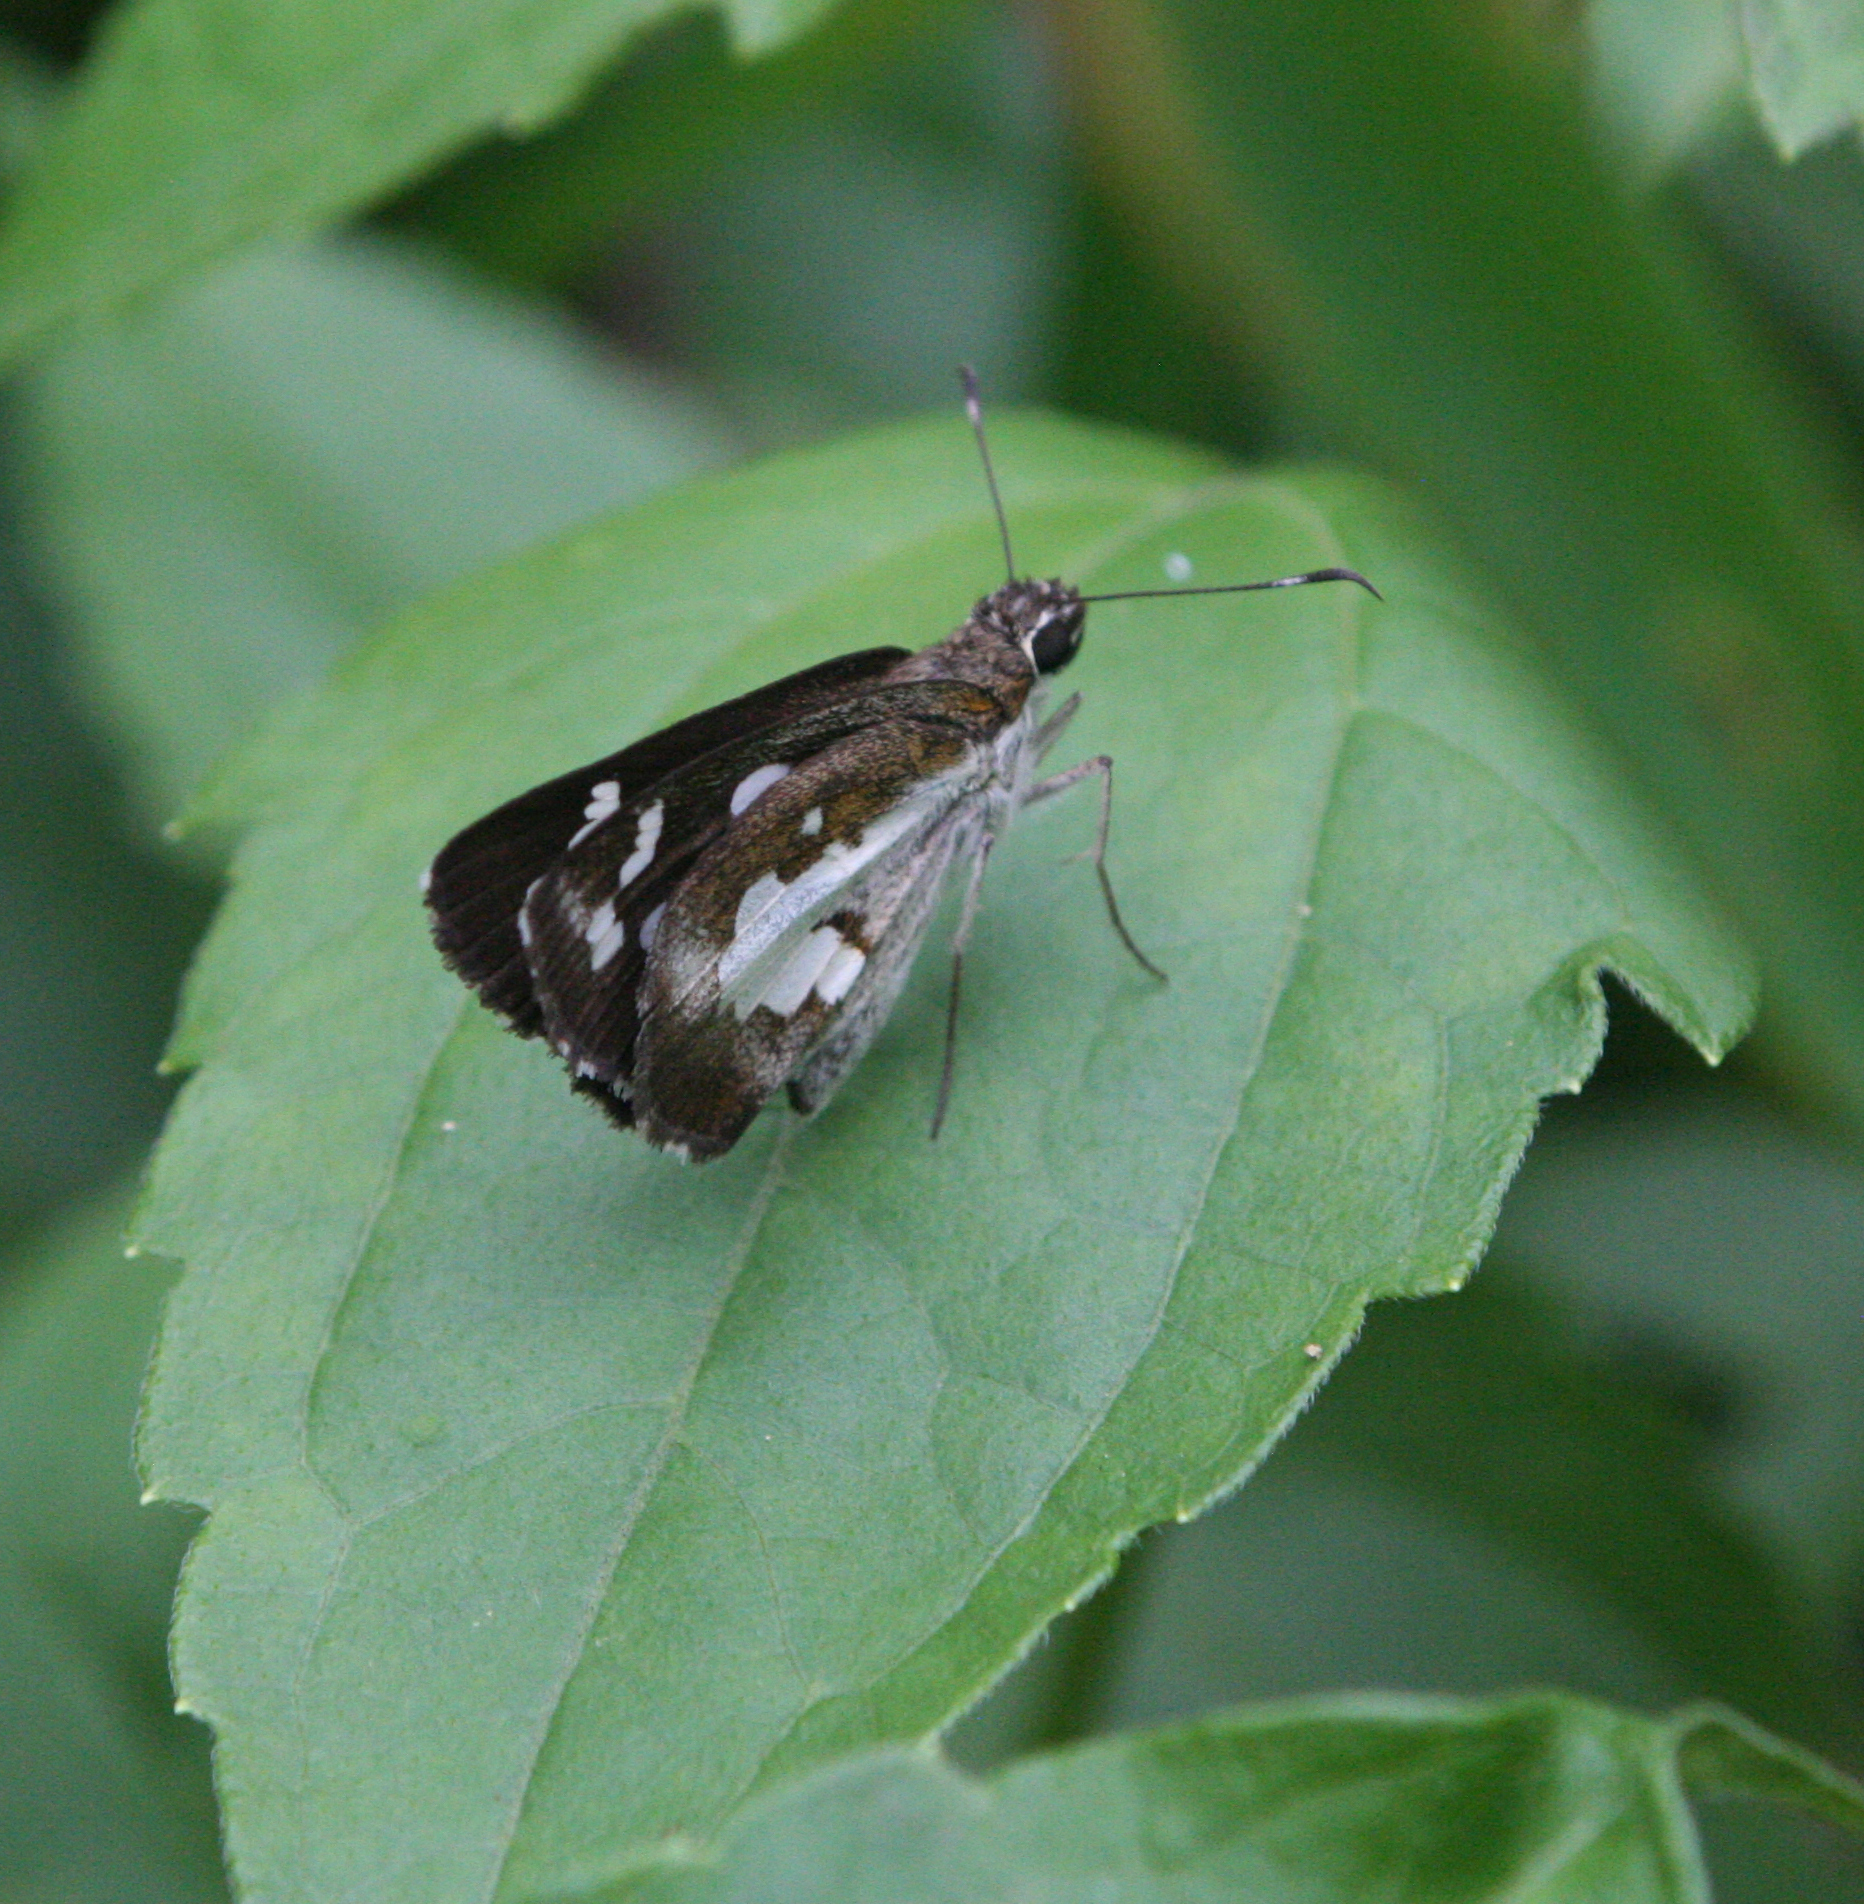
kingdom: Animalia
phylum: Arthropoda
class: Insecta
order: Lepidoptera
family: Hesperiidae
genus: Udaspes
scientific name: Udaspes folus
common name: Grass demon
